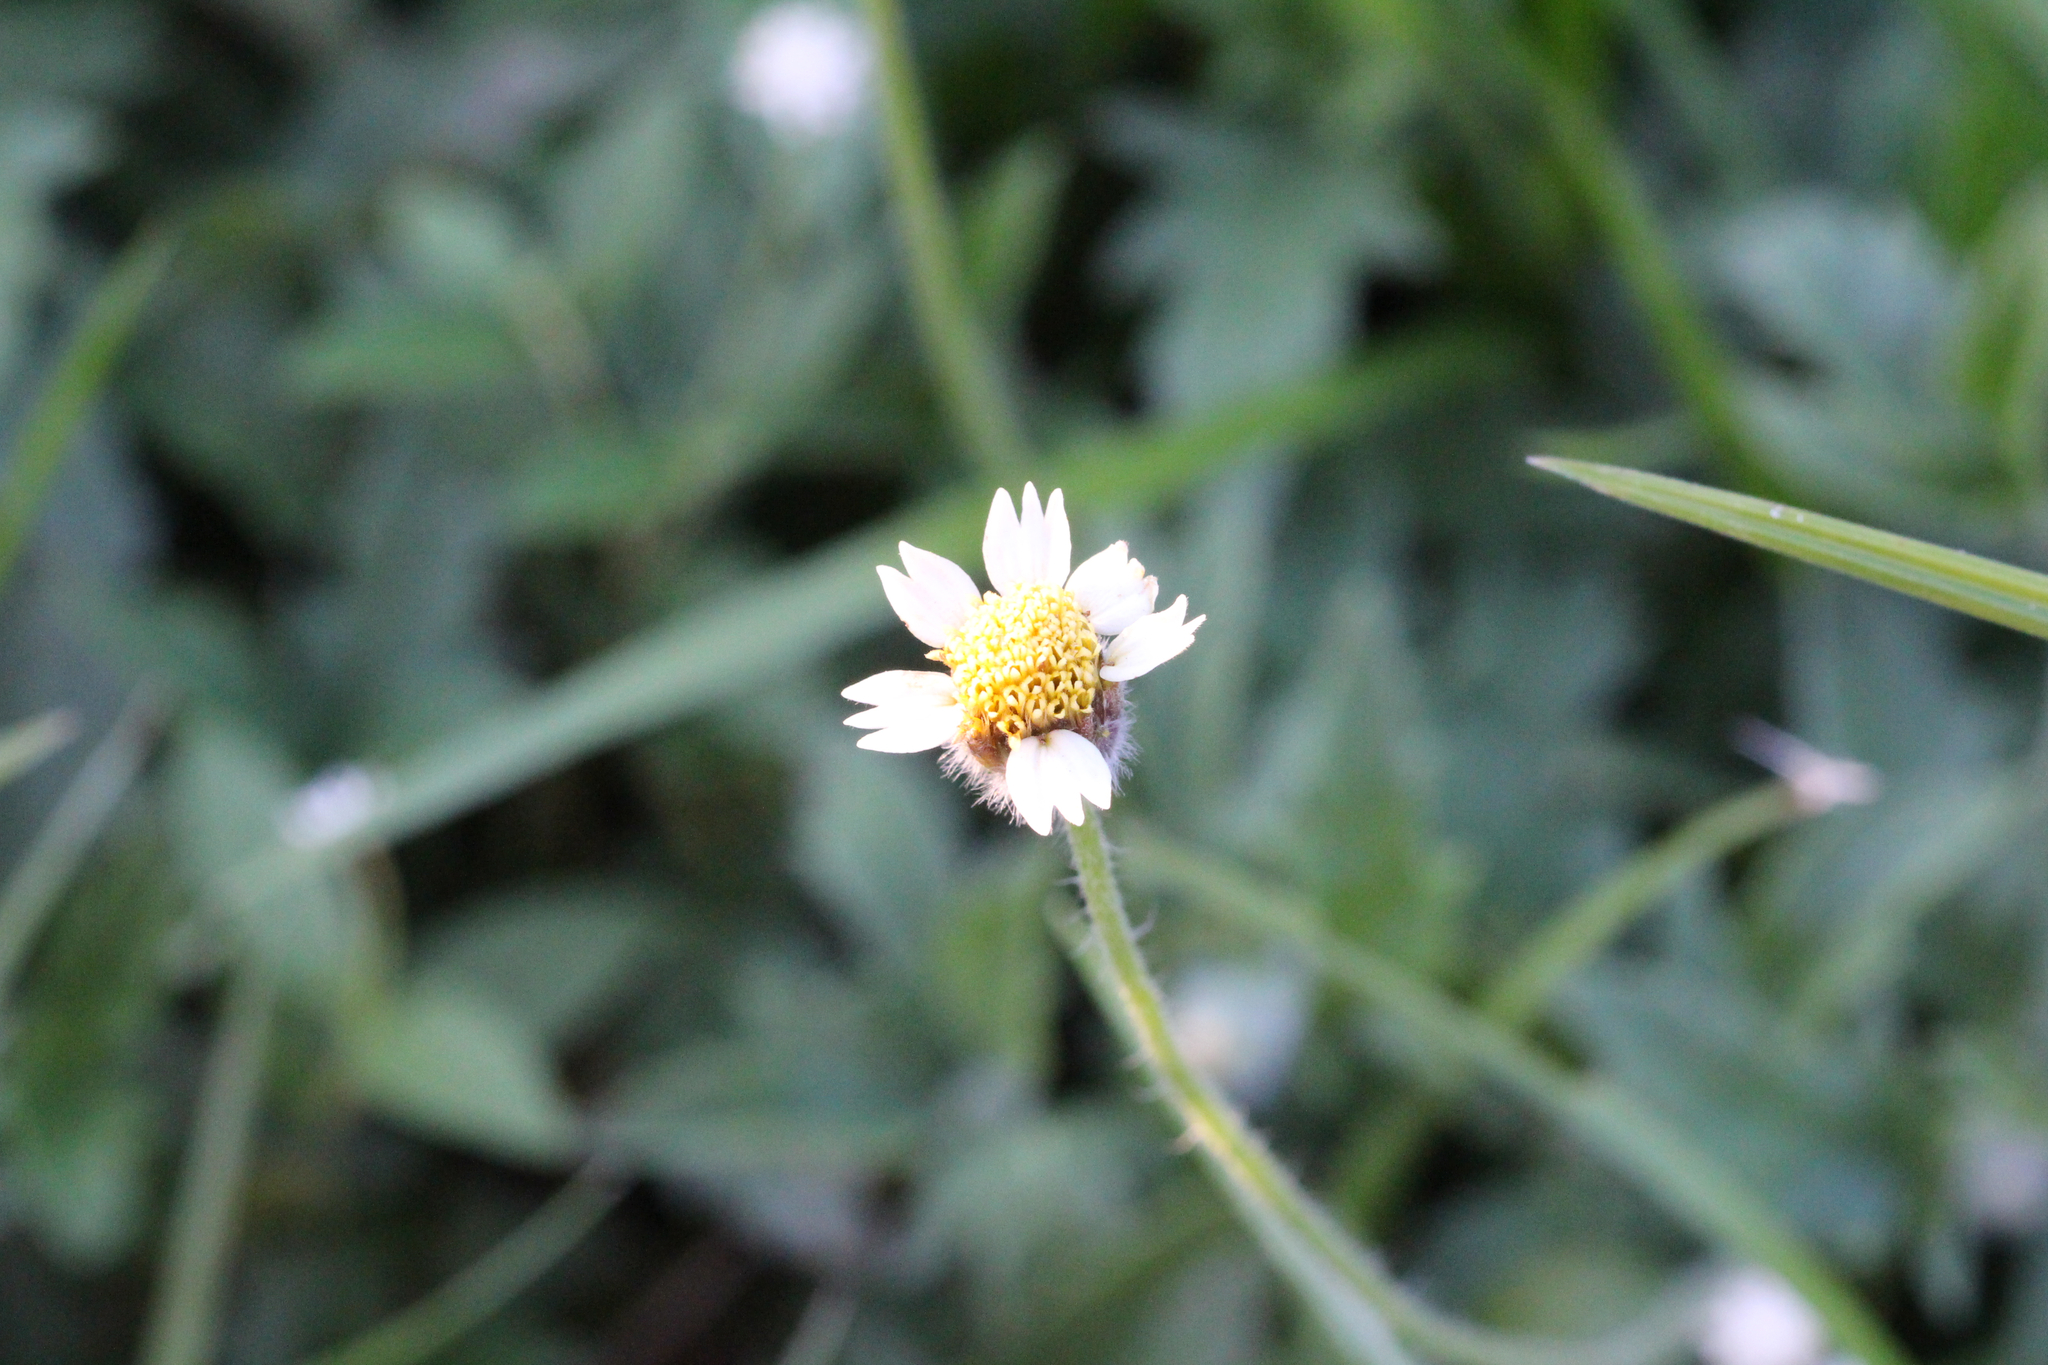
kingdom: Plantae
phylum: Tracheophyta
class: Magnoliopsida
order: Asterales
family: Asteraceae
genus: Tridax
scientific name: Tridax procumbens
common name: Coatbuttons
